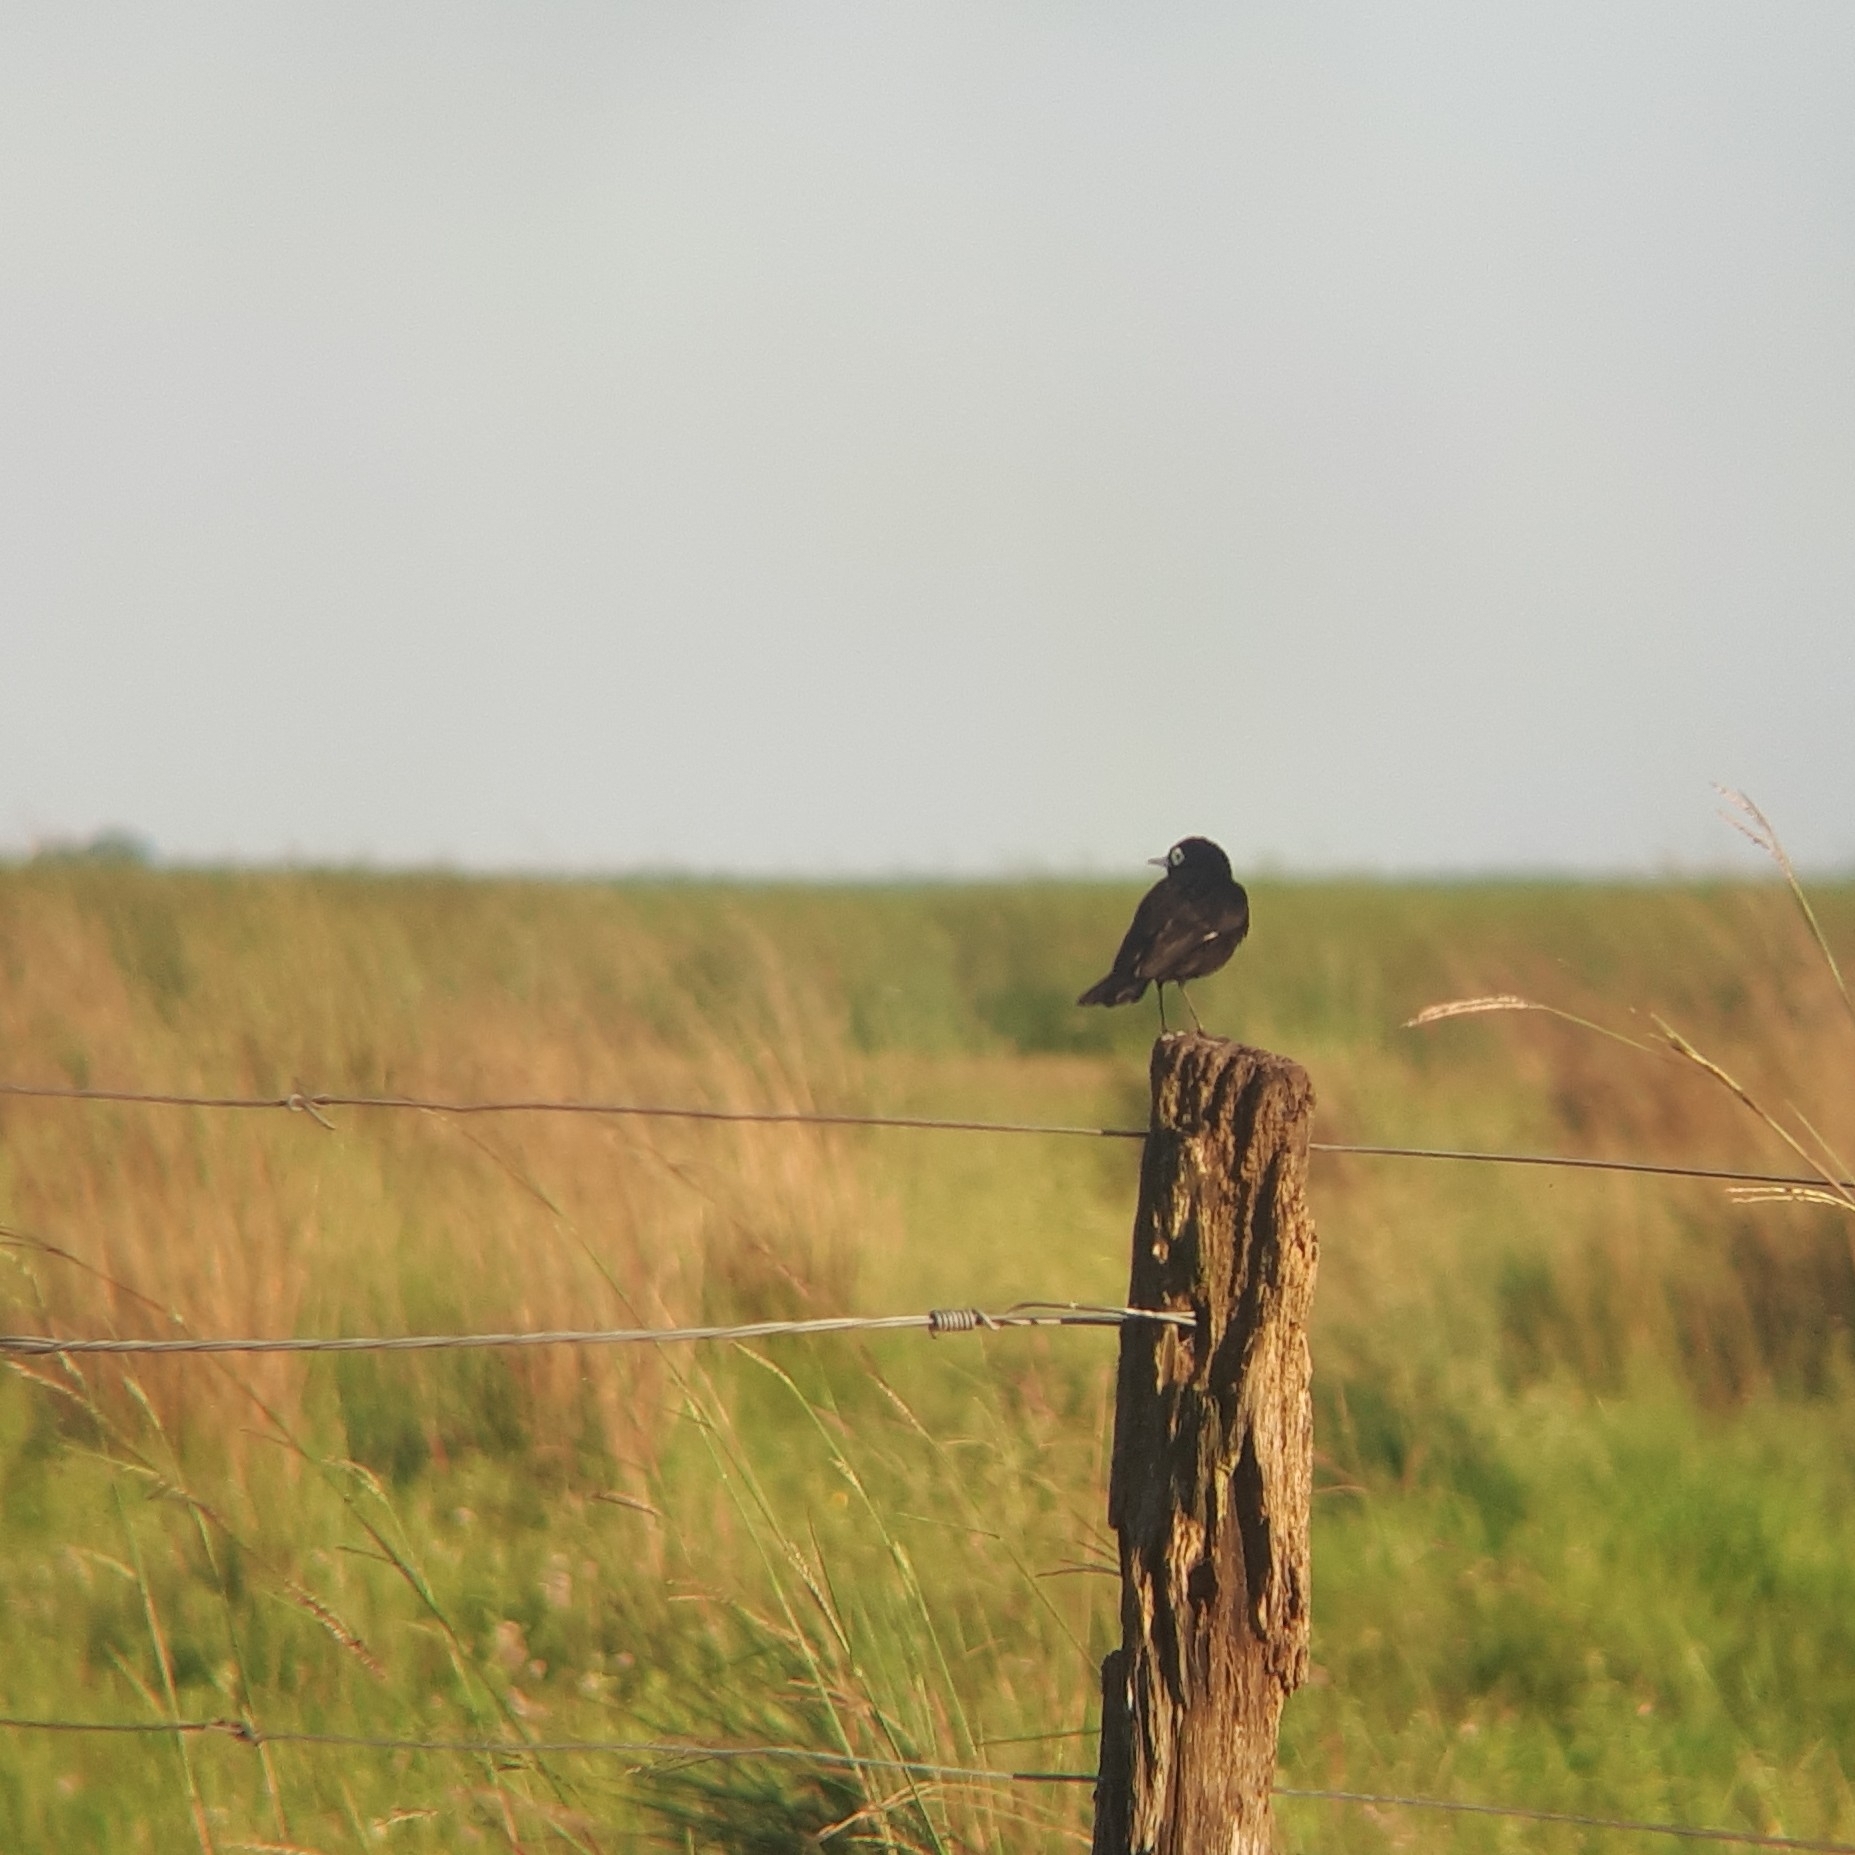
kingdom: Animalia
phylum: Chordata
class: Aves
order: Passeriformes
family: Tyrannidae
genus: Hymenops
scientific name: Hymenops perspicillatus
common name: Spectacled tyrant
